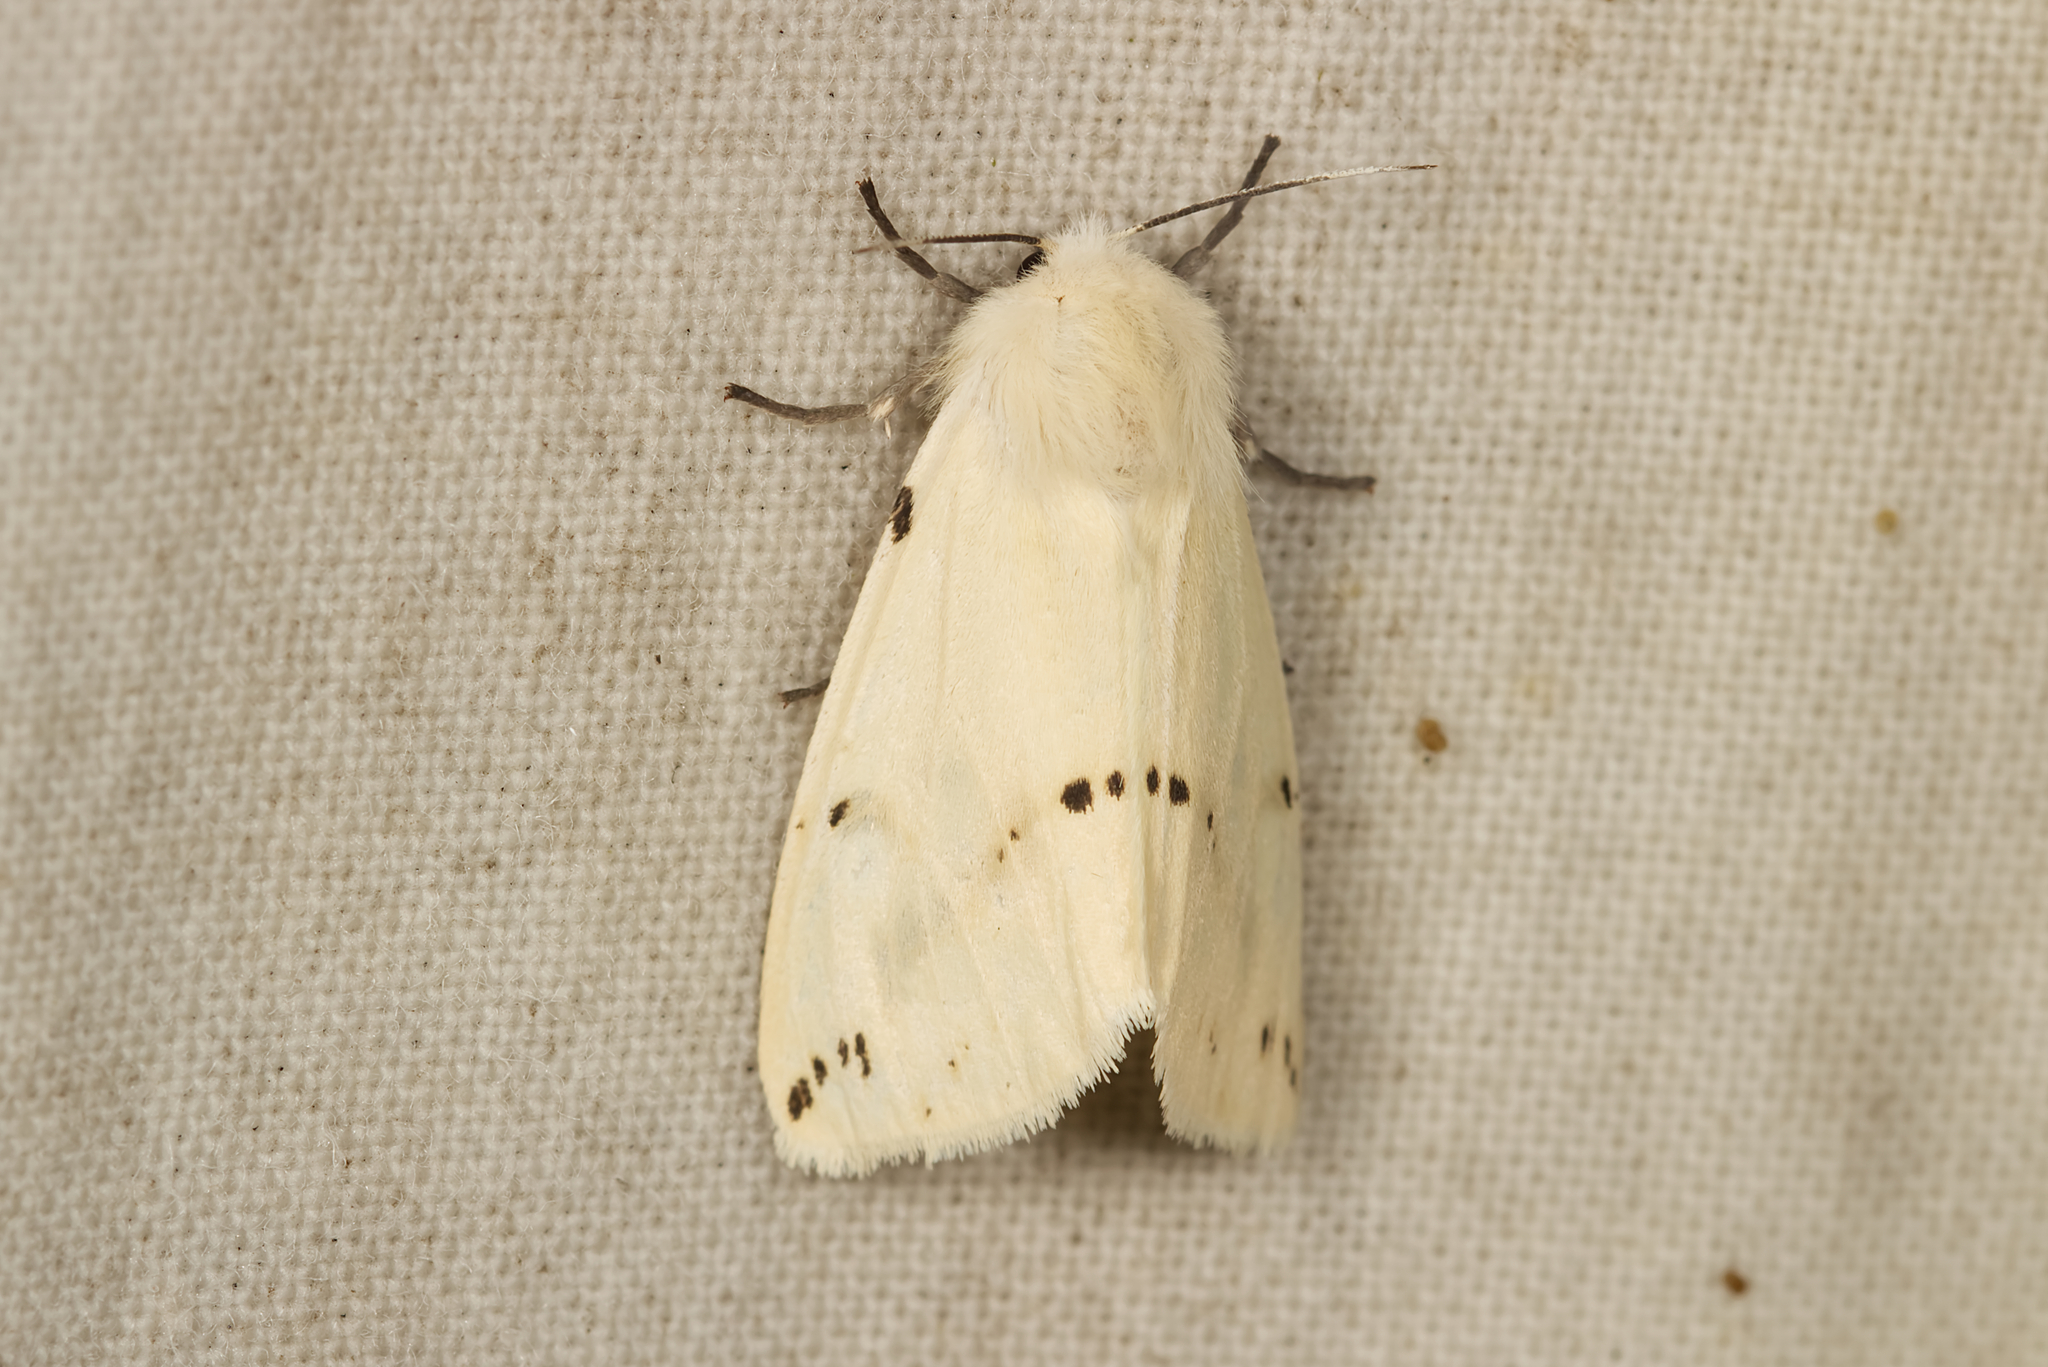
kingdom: Animalia
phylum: Arthropoda
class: Insecta
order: Lepidoptera
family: Erebidae
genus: Spilarctia
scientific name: Spilarctia lutea
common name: Buff ermine
